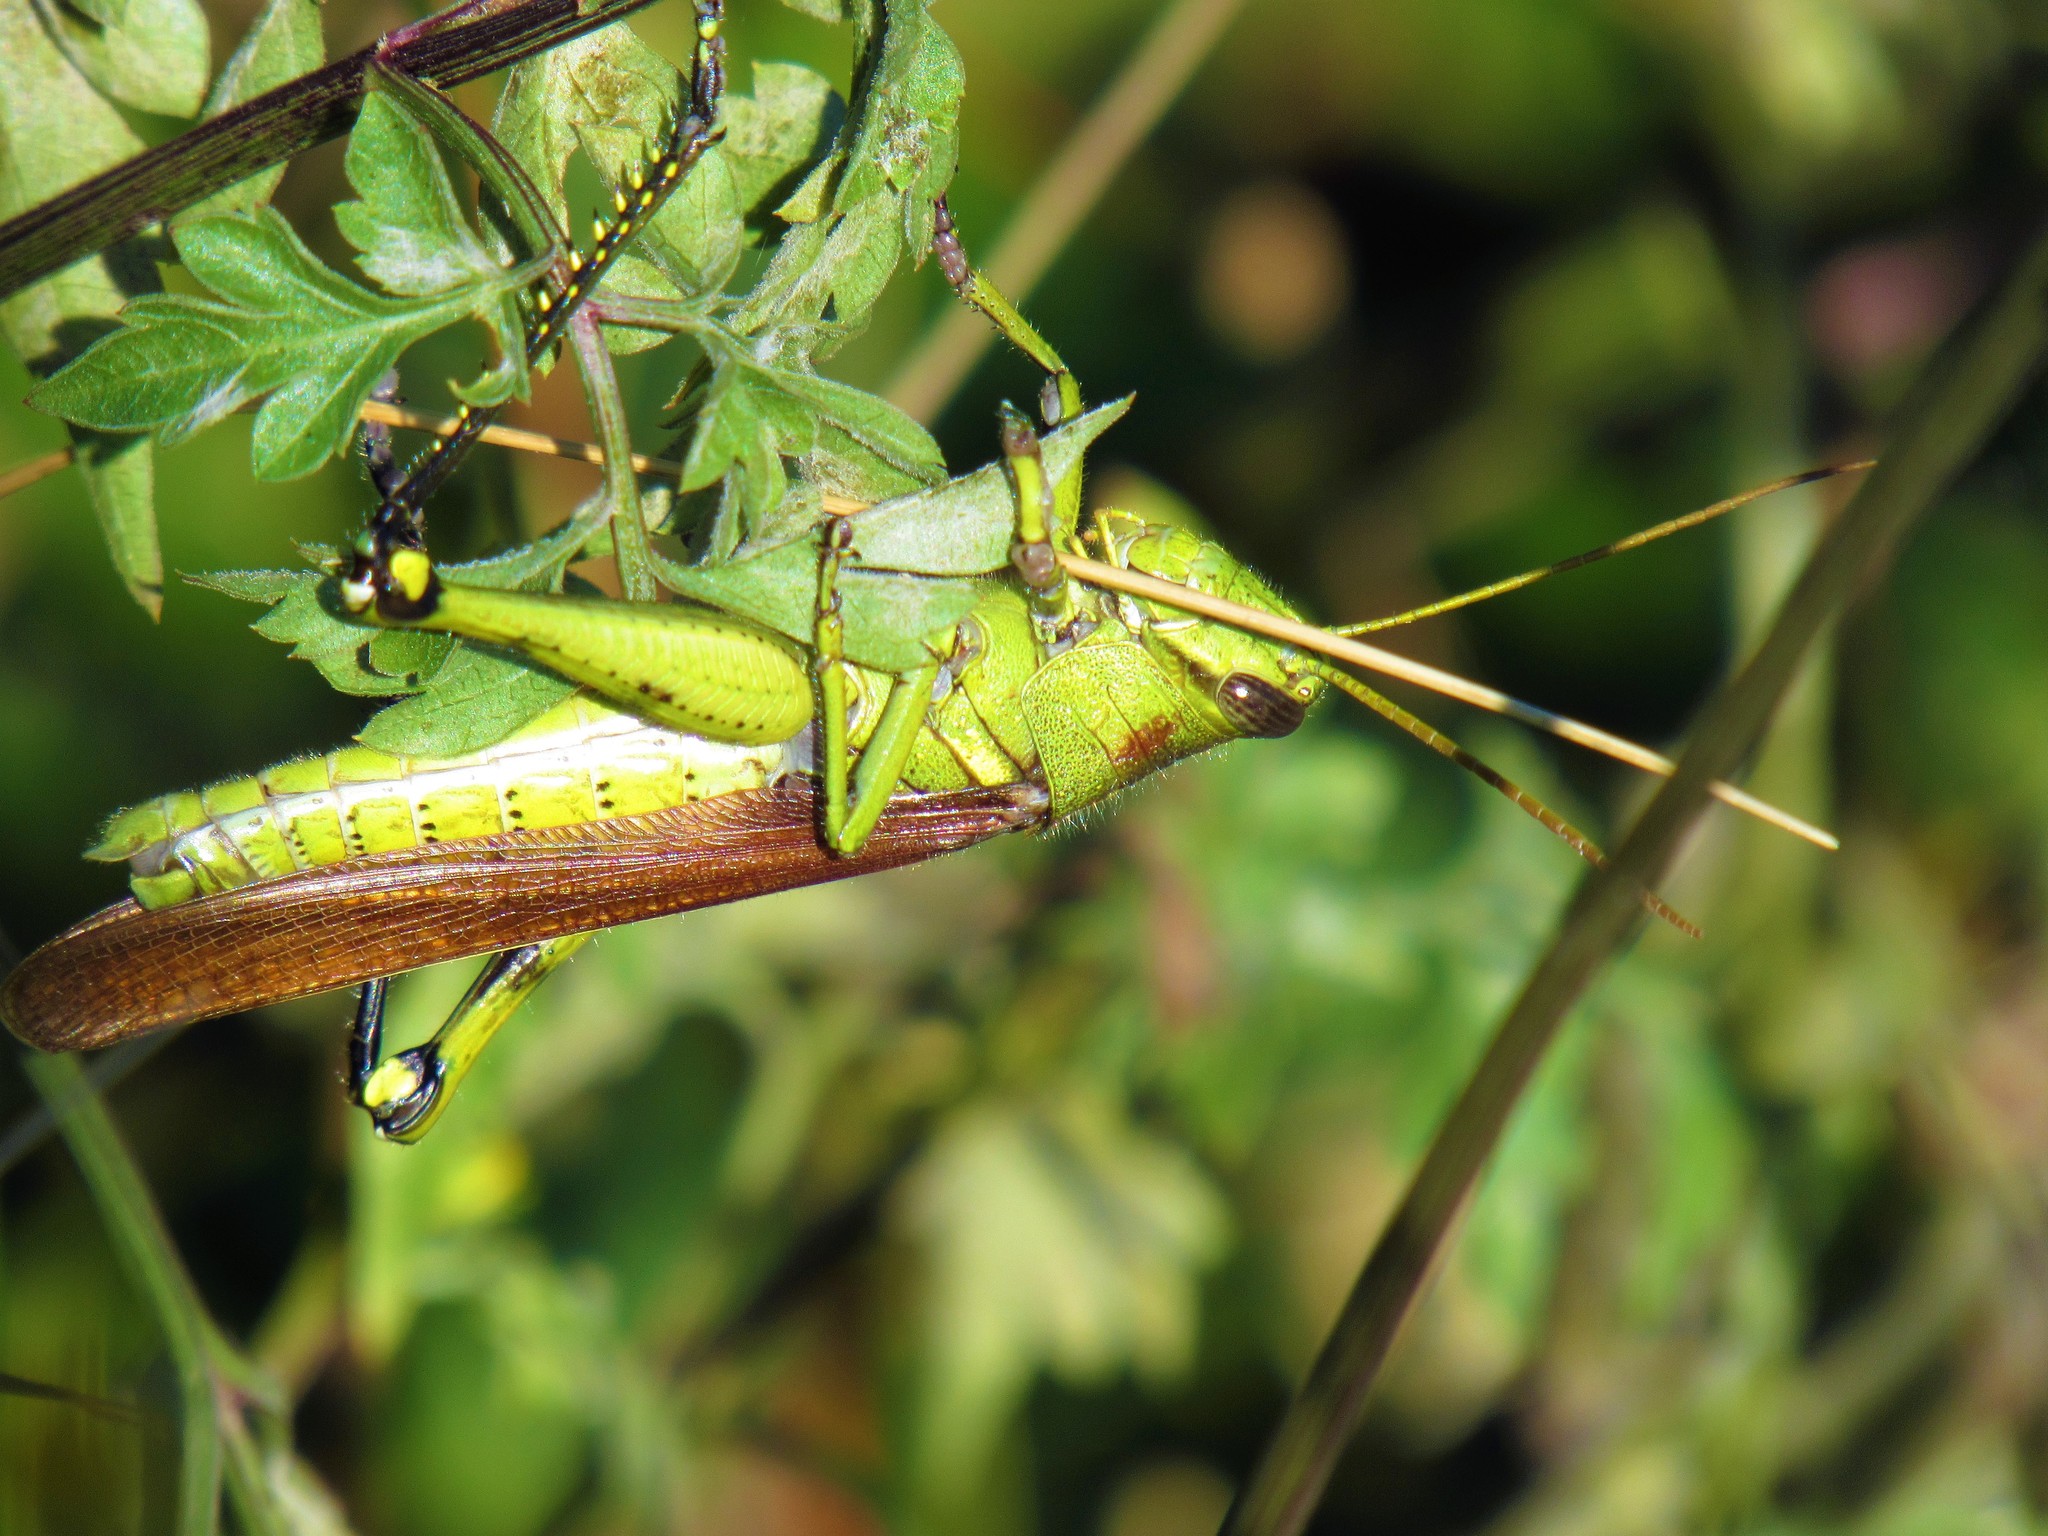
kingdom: Animalia
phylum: Arthropoda
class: Insecta
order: Orthoptera
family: Acrididae
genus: Schistocerca
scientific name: Schistocerca obscura
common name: Obscure bird grasshopper
